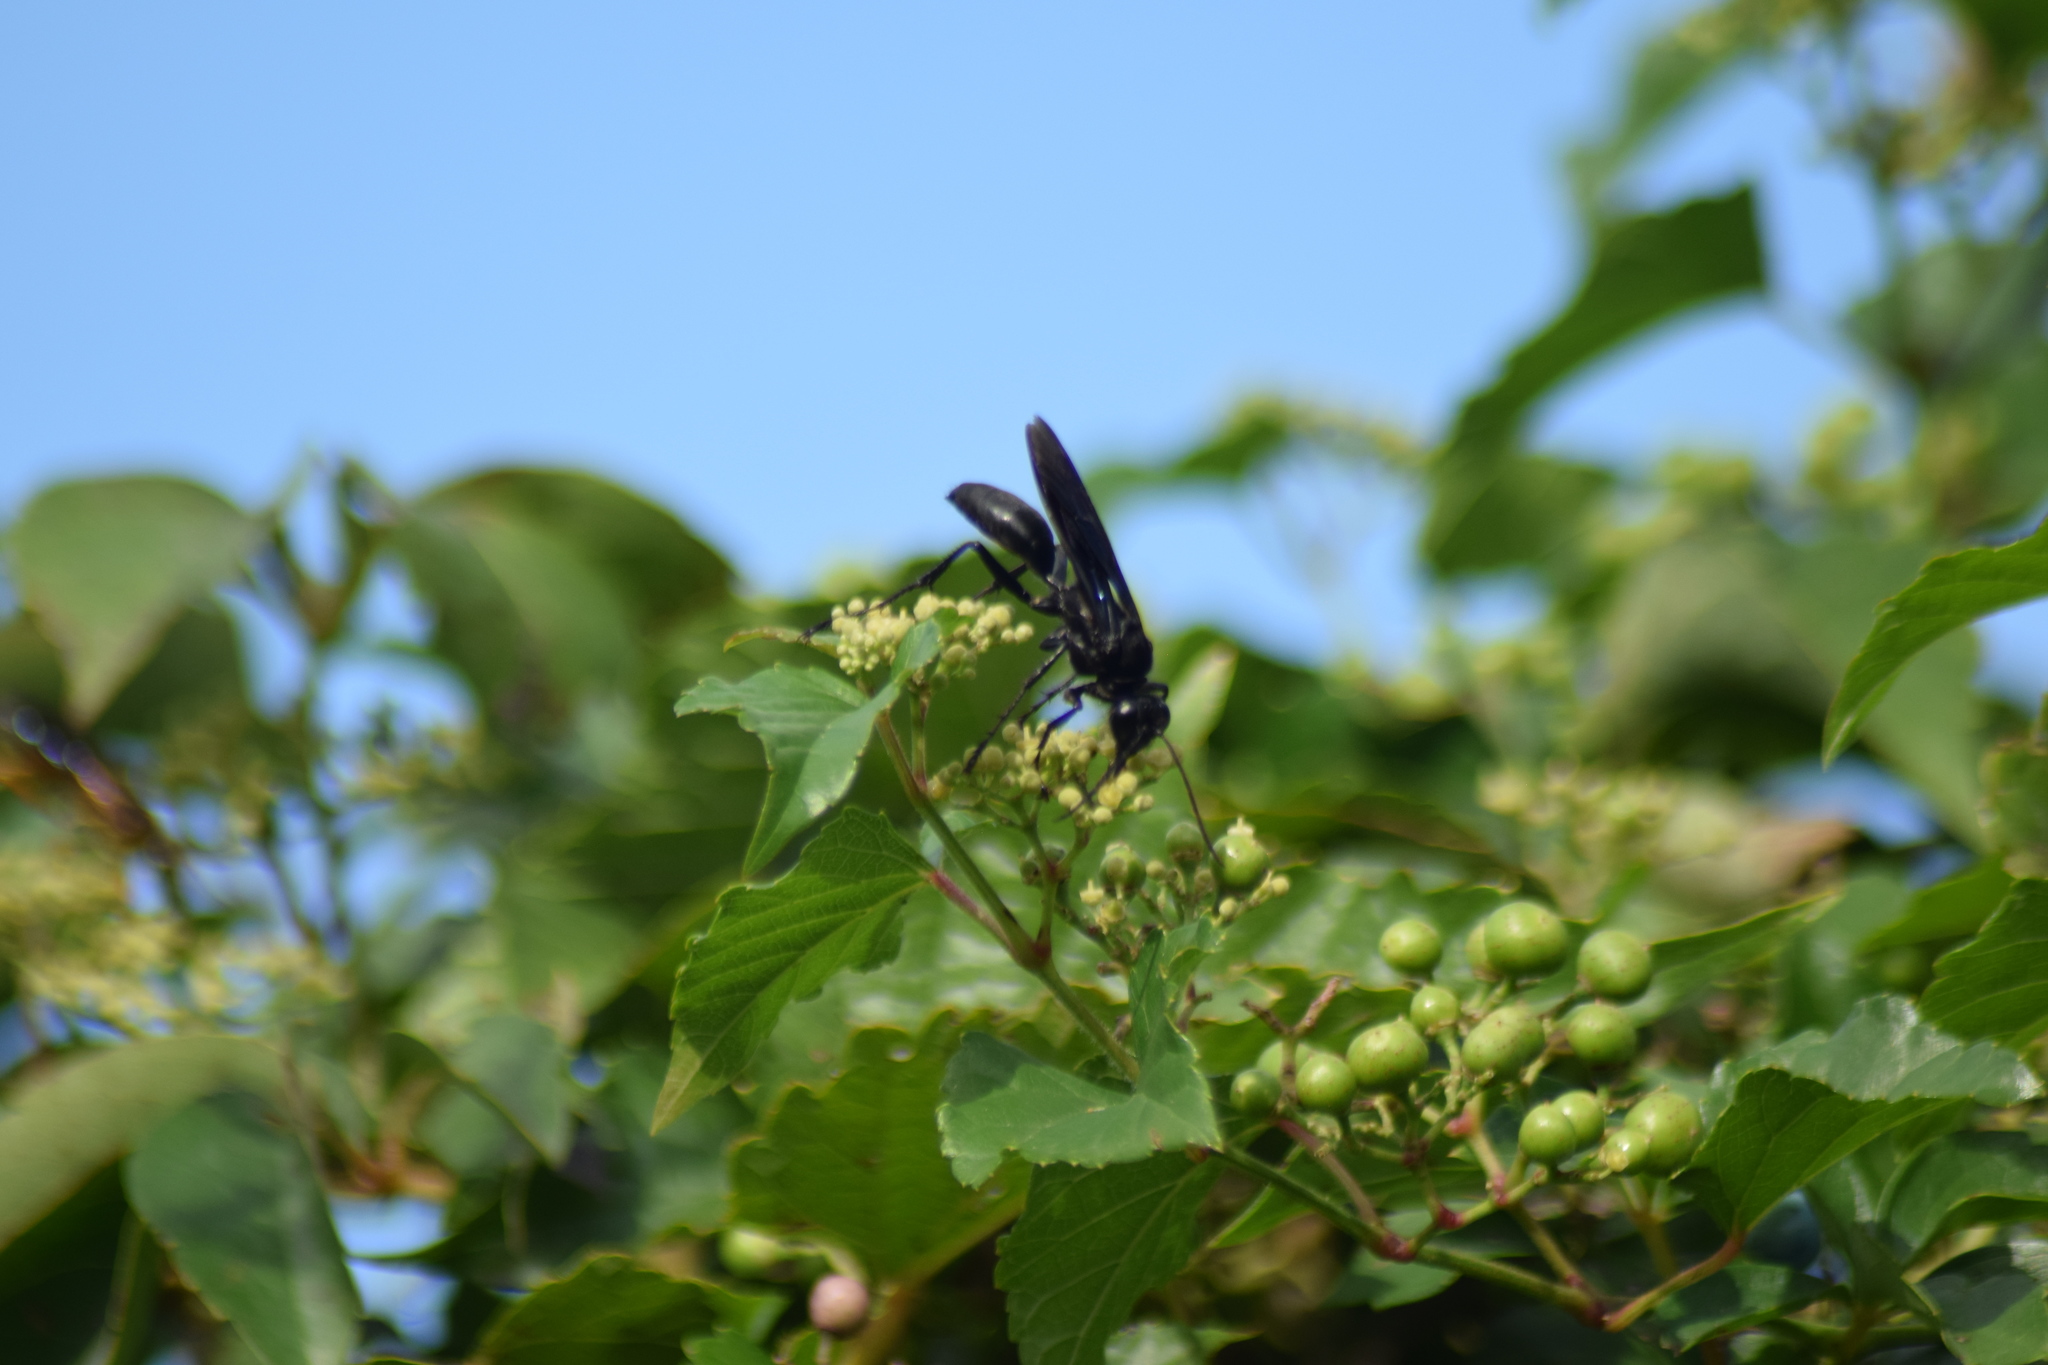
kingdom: Animalia
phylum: Arthropoda
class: Insecta
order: Hymenoptera
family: Sphecidae
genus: Sphex
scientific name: Sphex pensylvanicus
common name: Great black digger wasp
